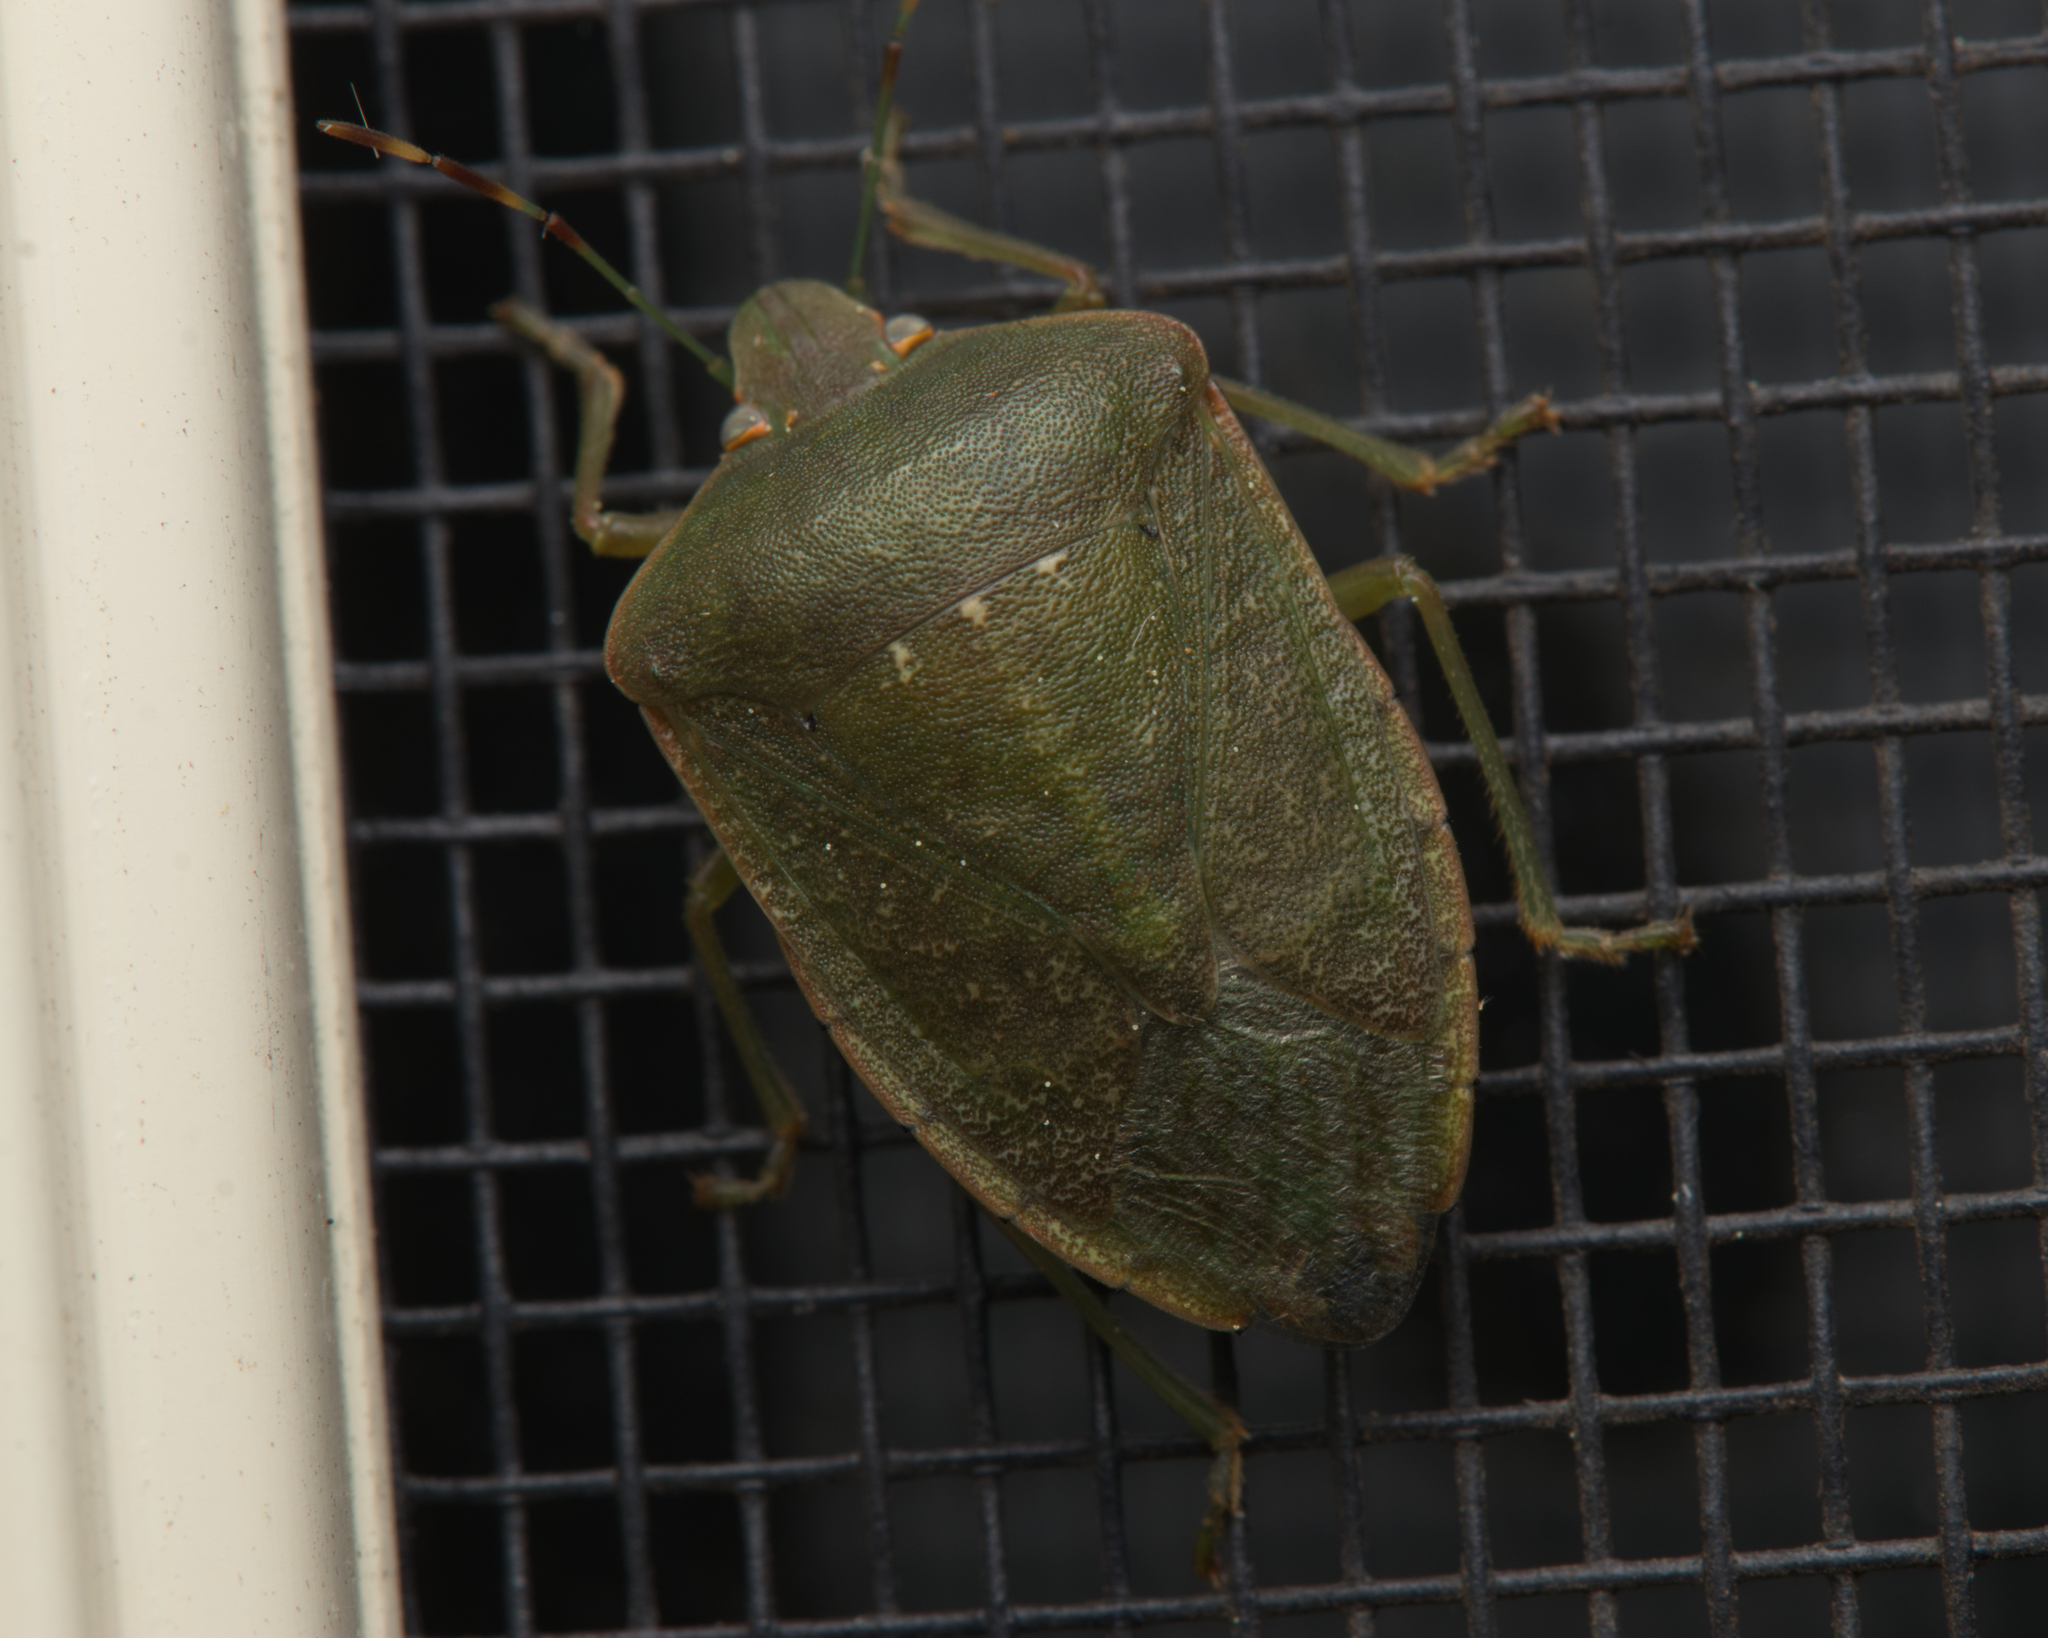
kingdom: Animalia
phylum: Arthropoda
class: Insecta
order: Hemiptera
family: Pentatomidae
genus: Nezara
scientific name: Nezara viridula
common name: Southern green stink bug
